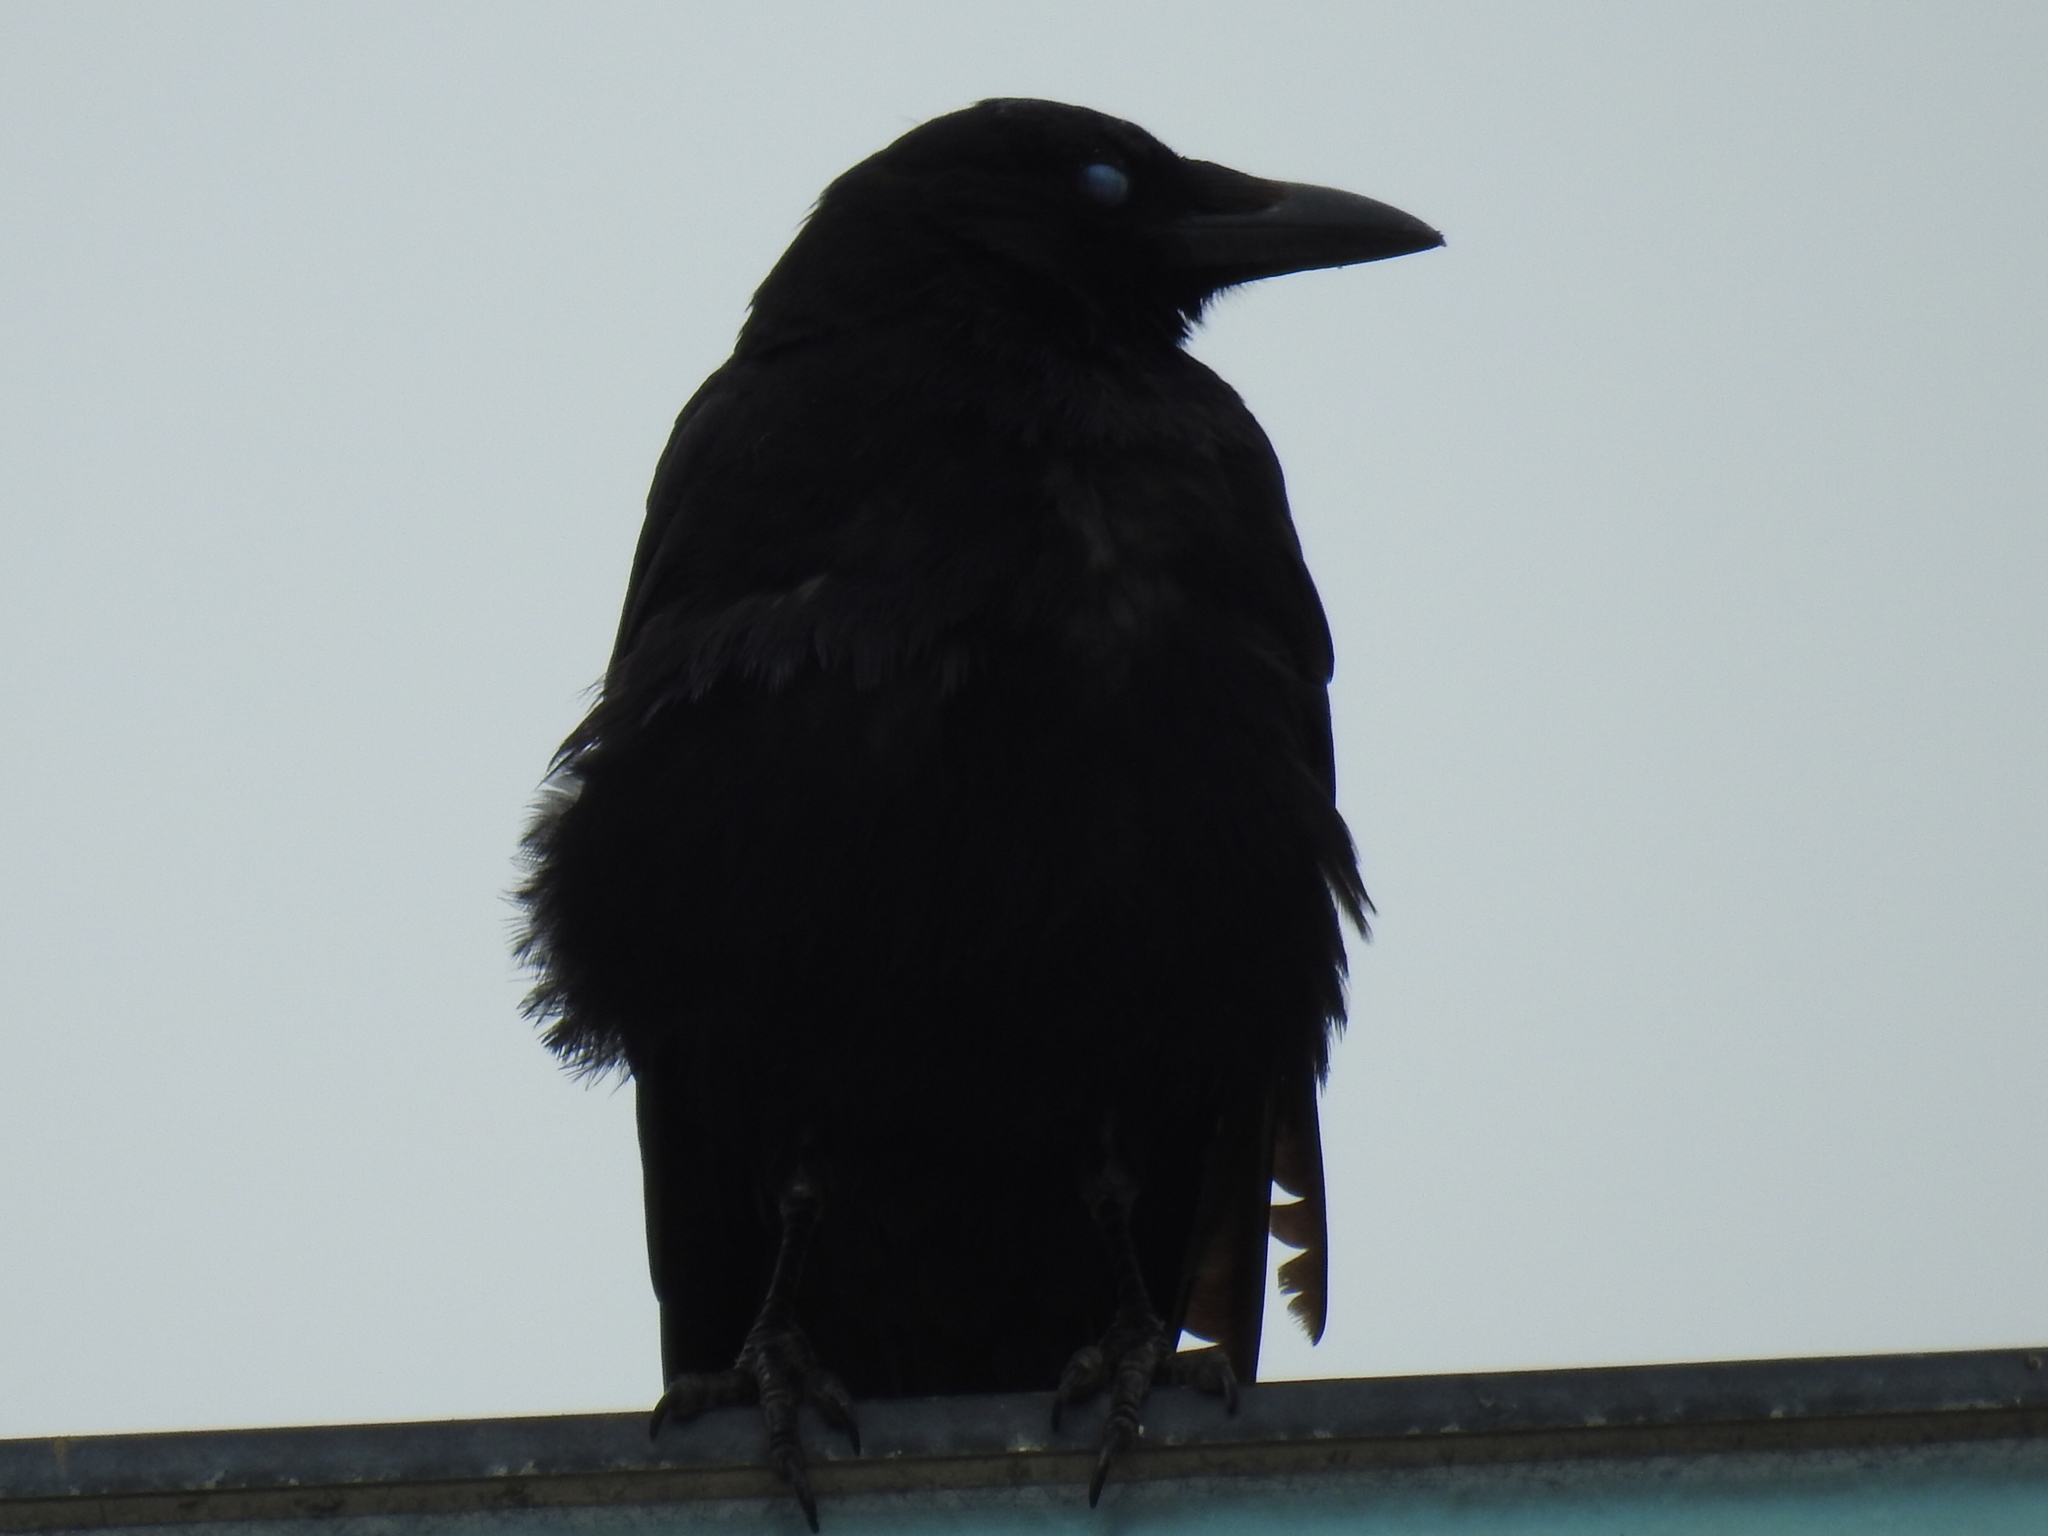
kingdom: Animalia
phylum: Chordata
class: Aves
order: Passeriformes
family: Corvidae
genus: Corvus
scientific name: Corvus brachyrhynchos
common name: American crow
